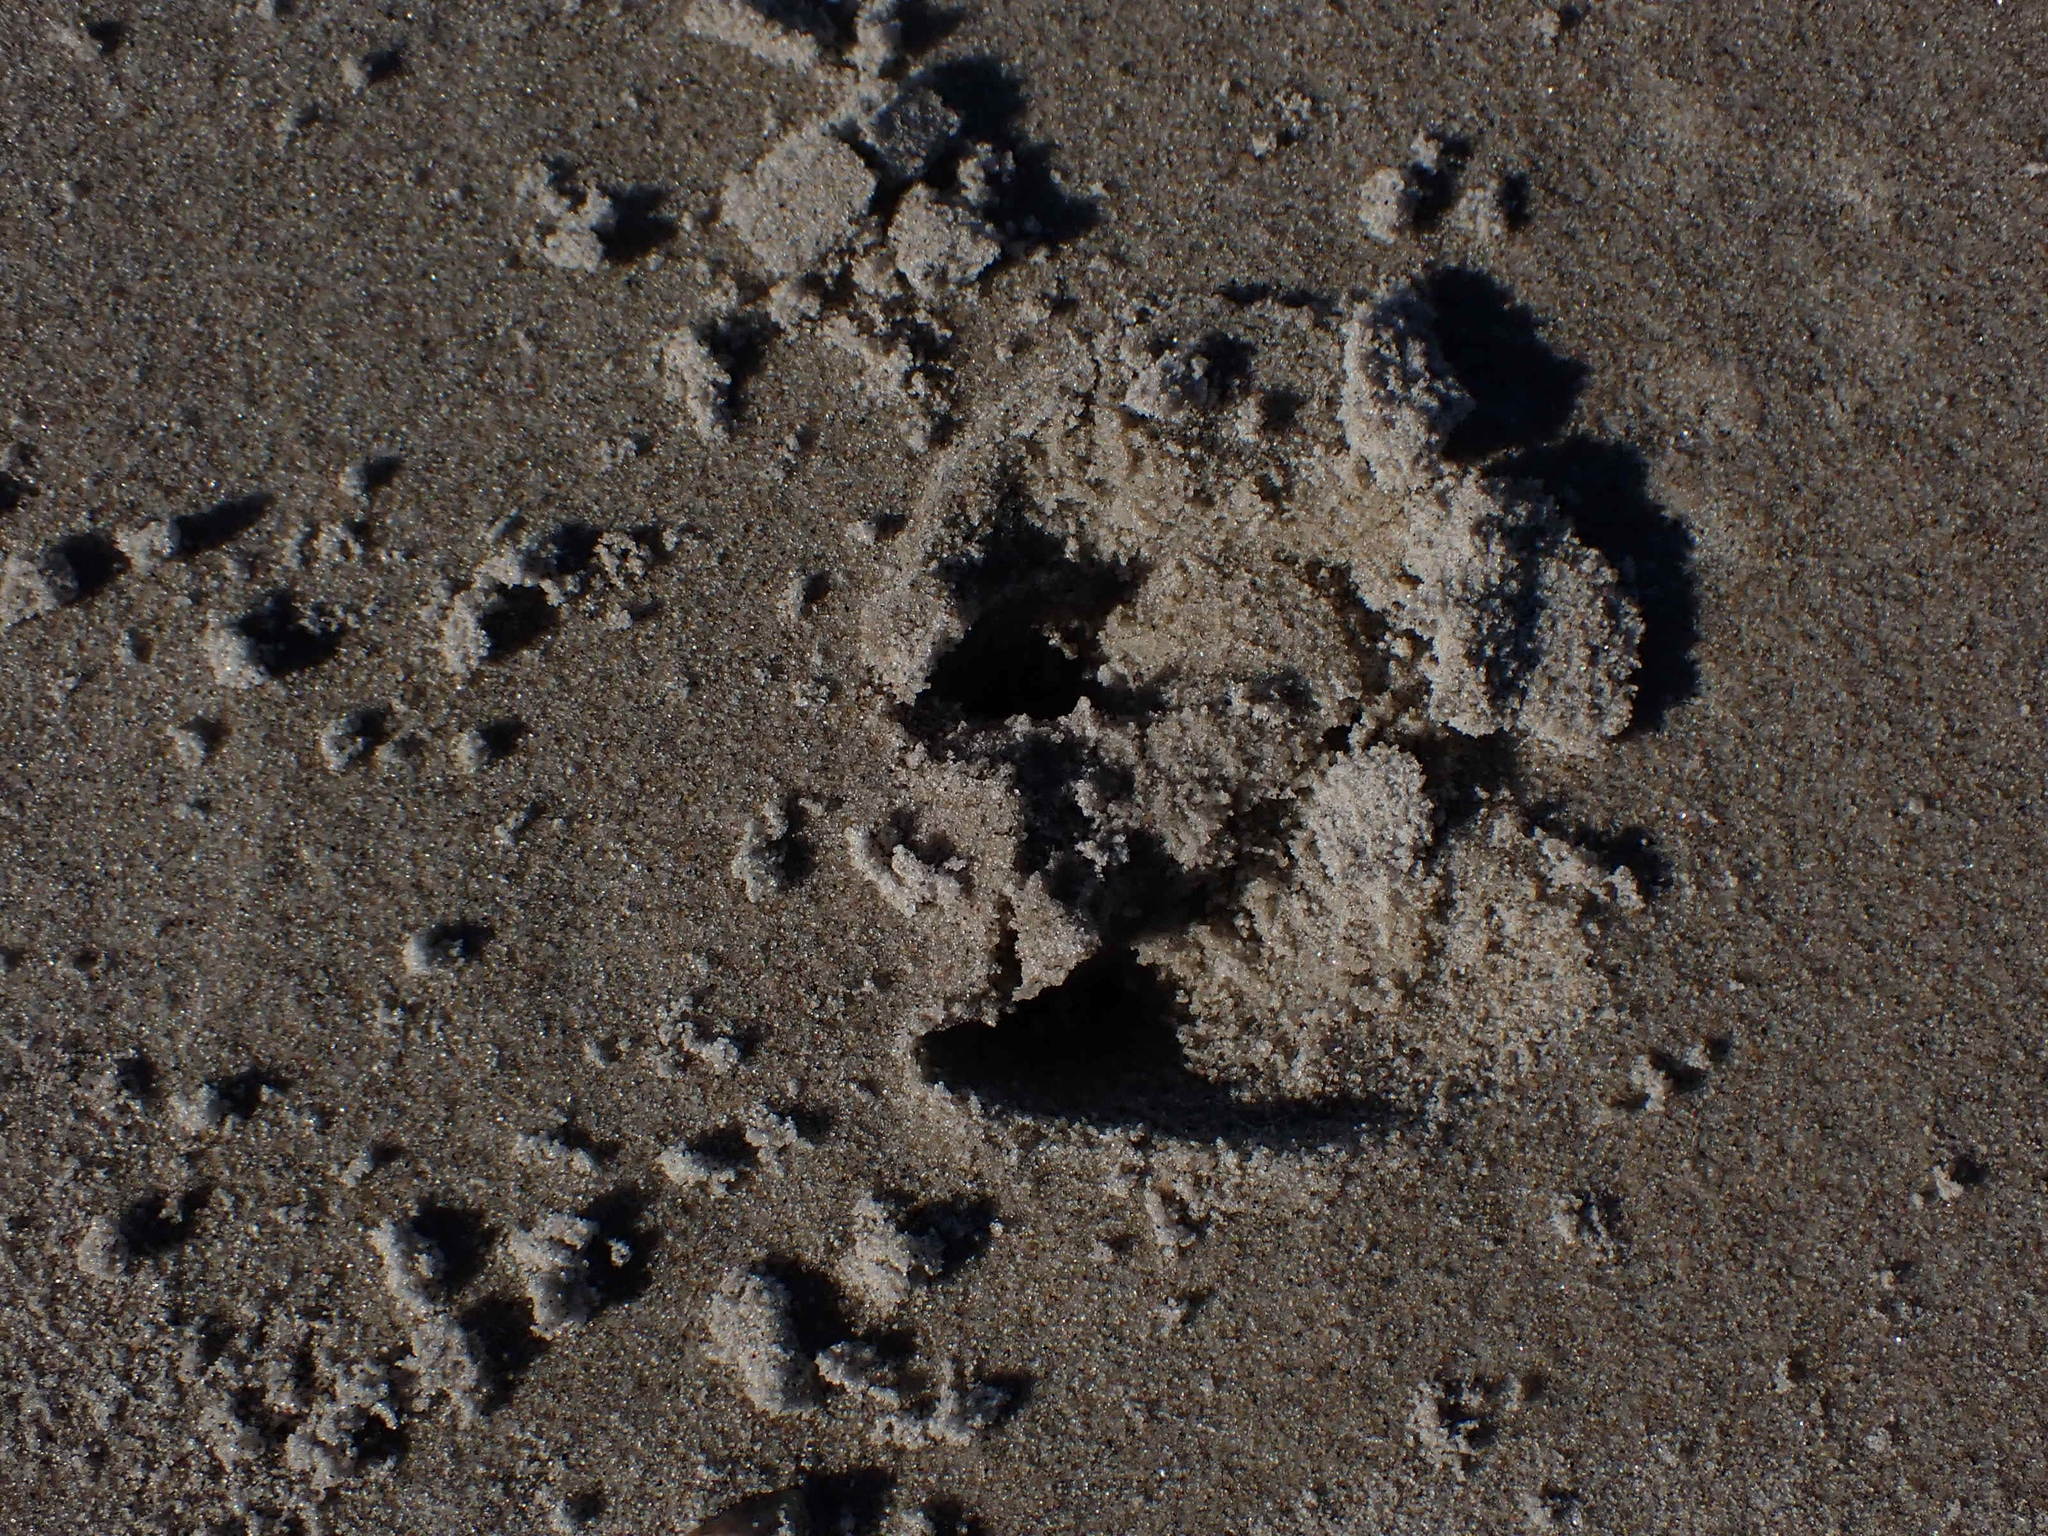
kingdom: Animalia
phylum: Chordata
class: Mammalia
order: Artiodactyla
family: Cervidae
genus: Odocoileus
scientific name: Odocoileus virginianus
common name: White-tailed deer
